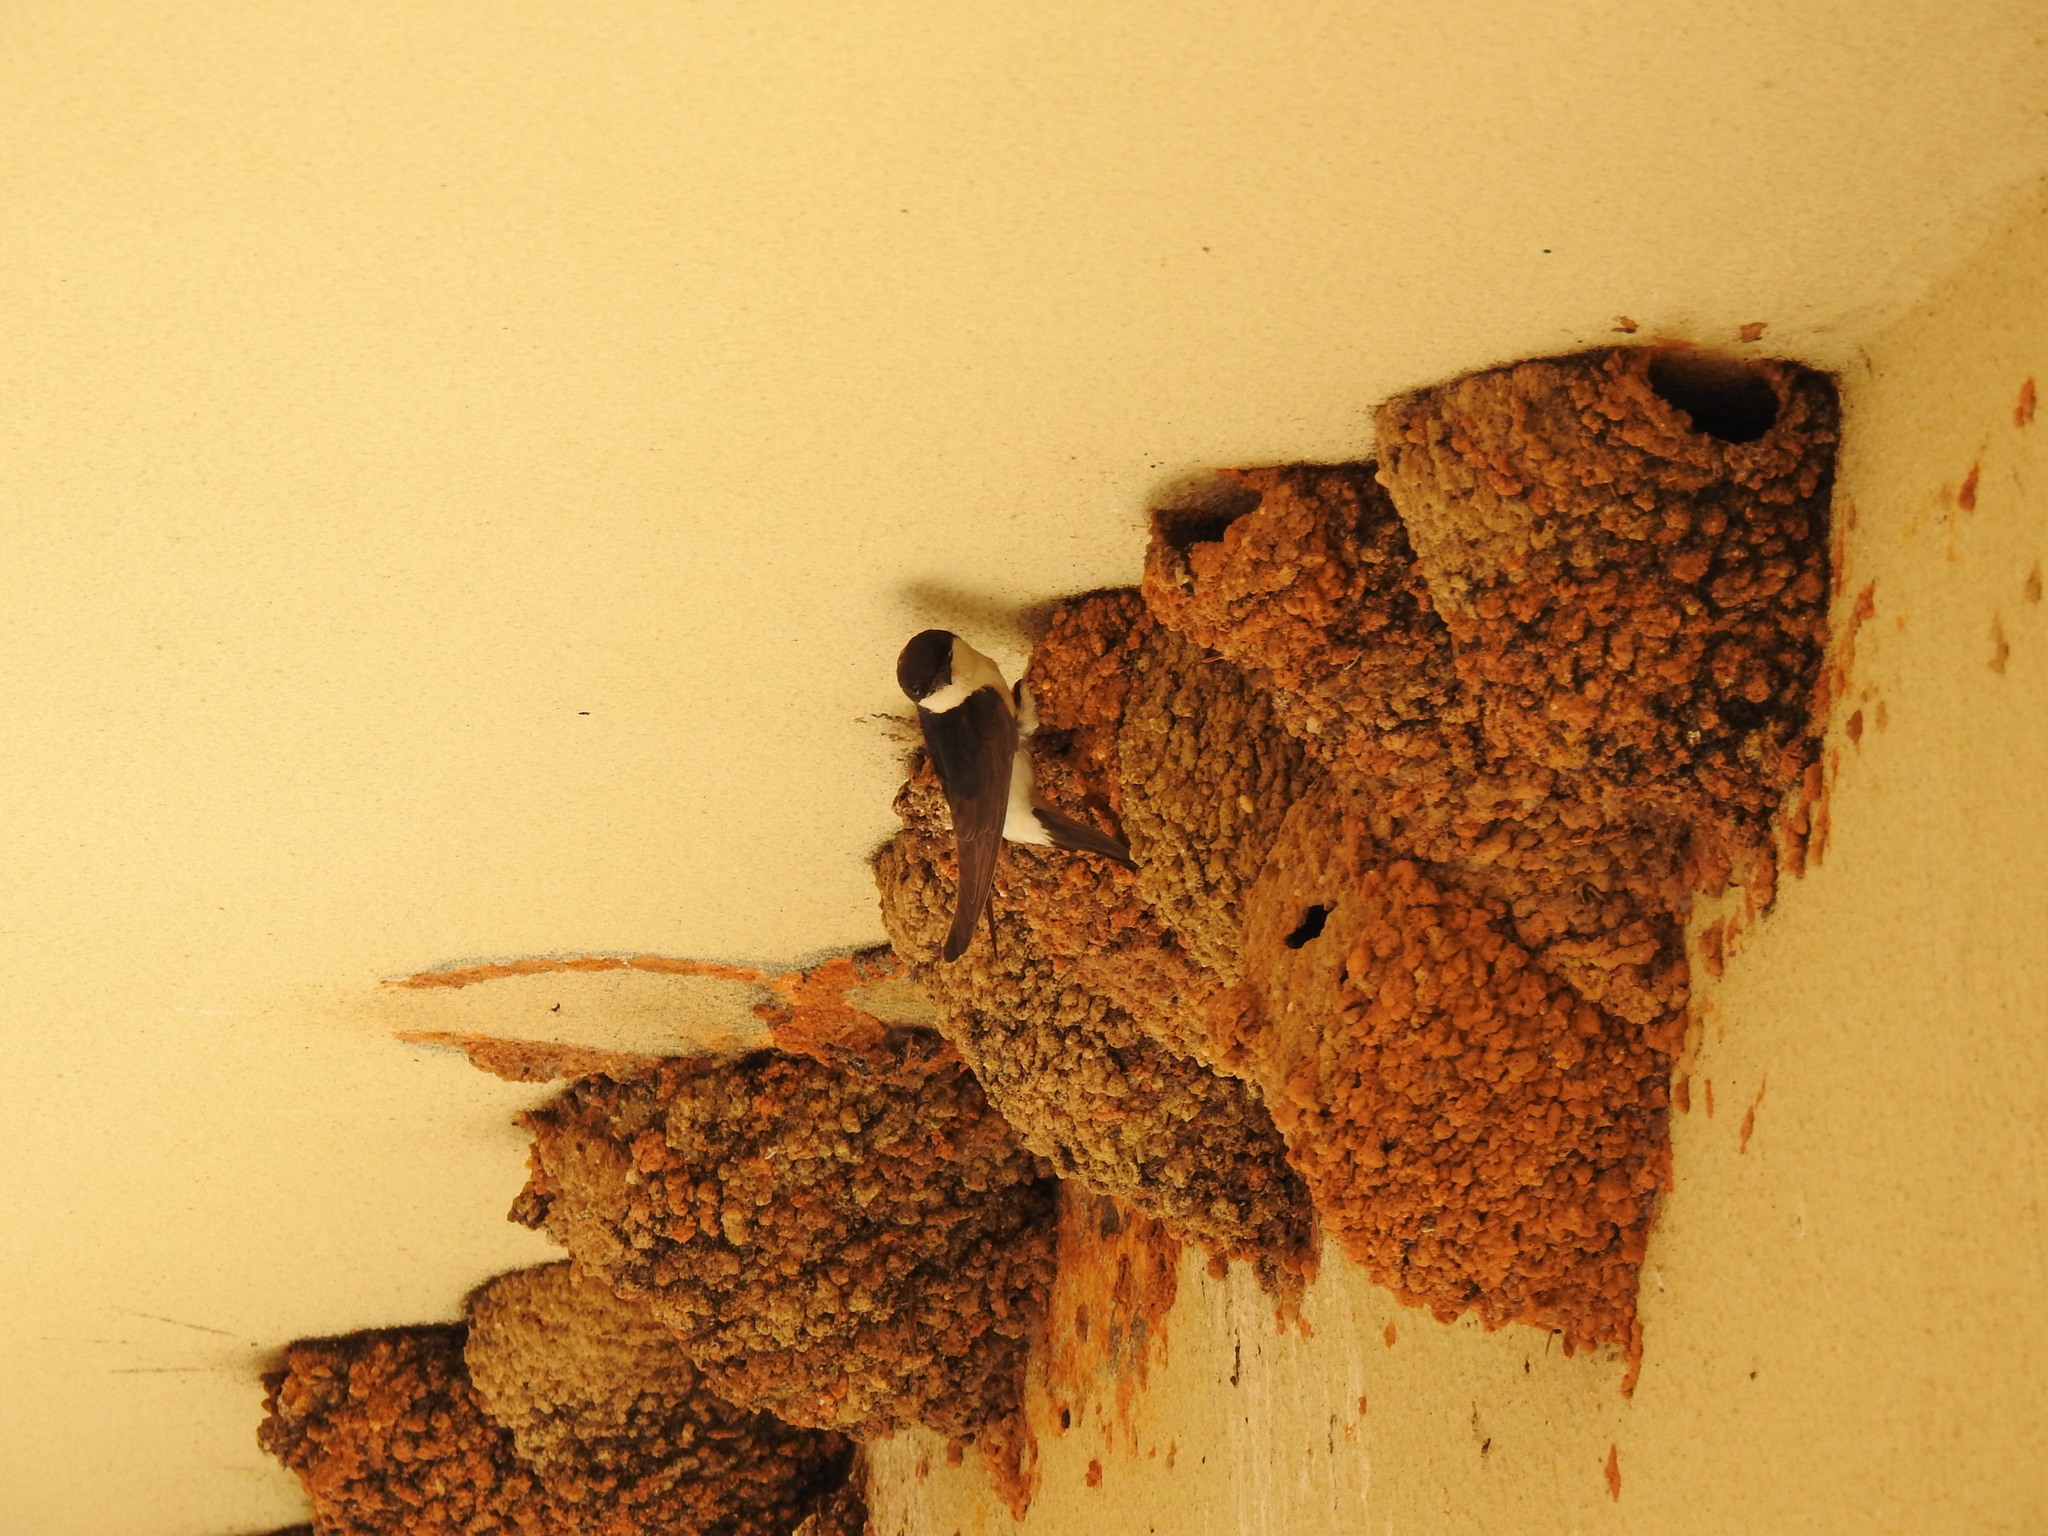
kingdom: Animalia
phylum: Chordata
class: Aves
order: Passeriformes
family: Hirundinidae
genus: Delichon
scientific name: Delichon urbicum
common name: Common house martin
